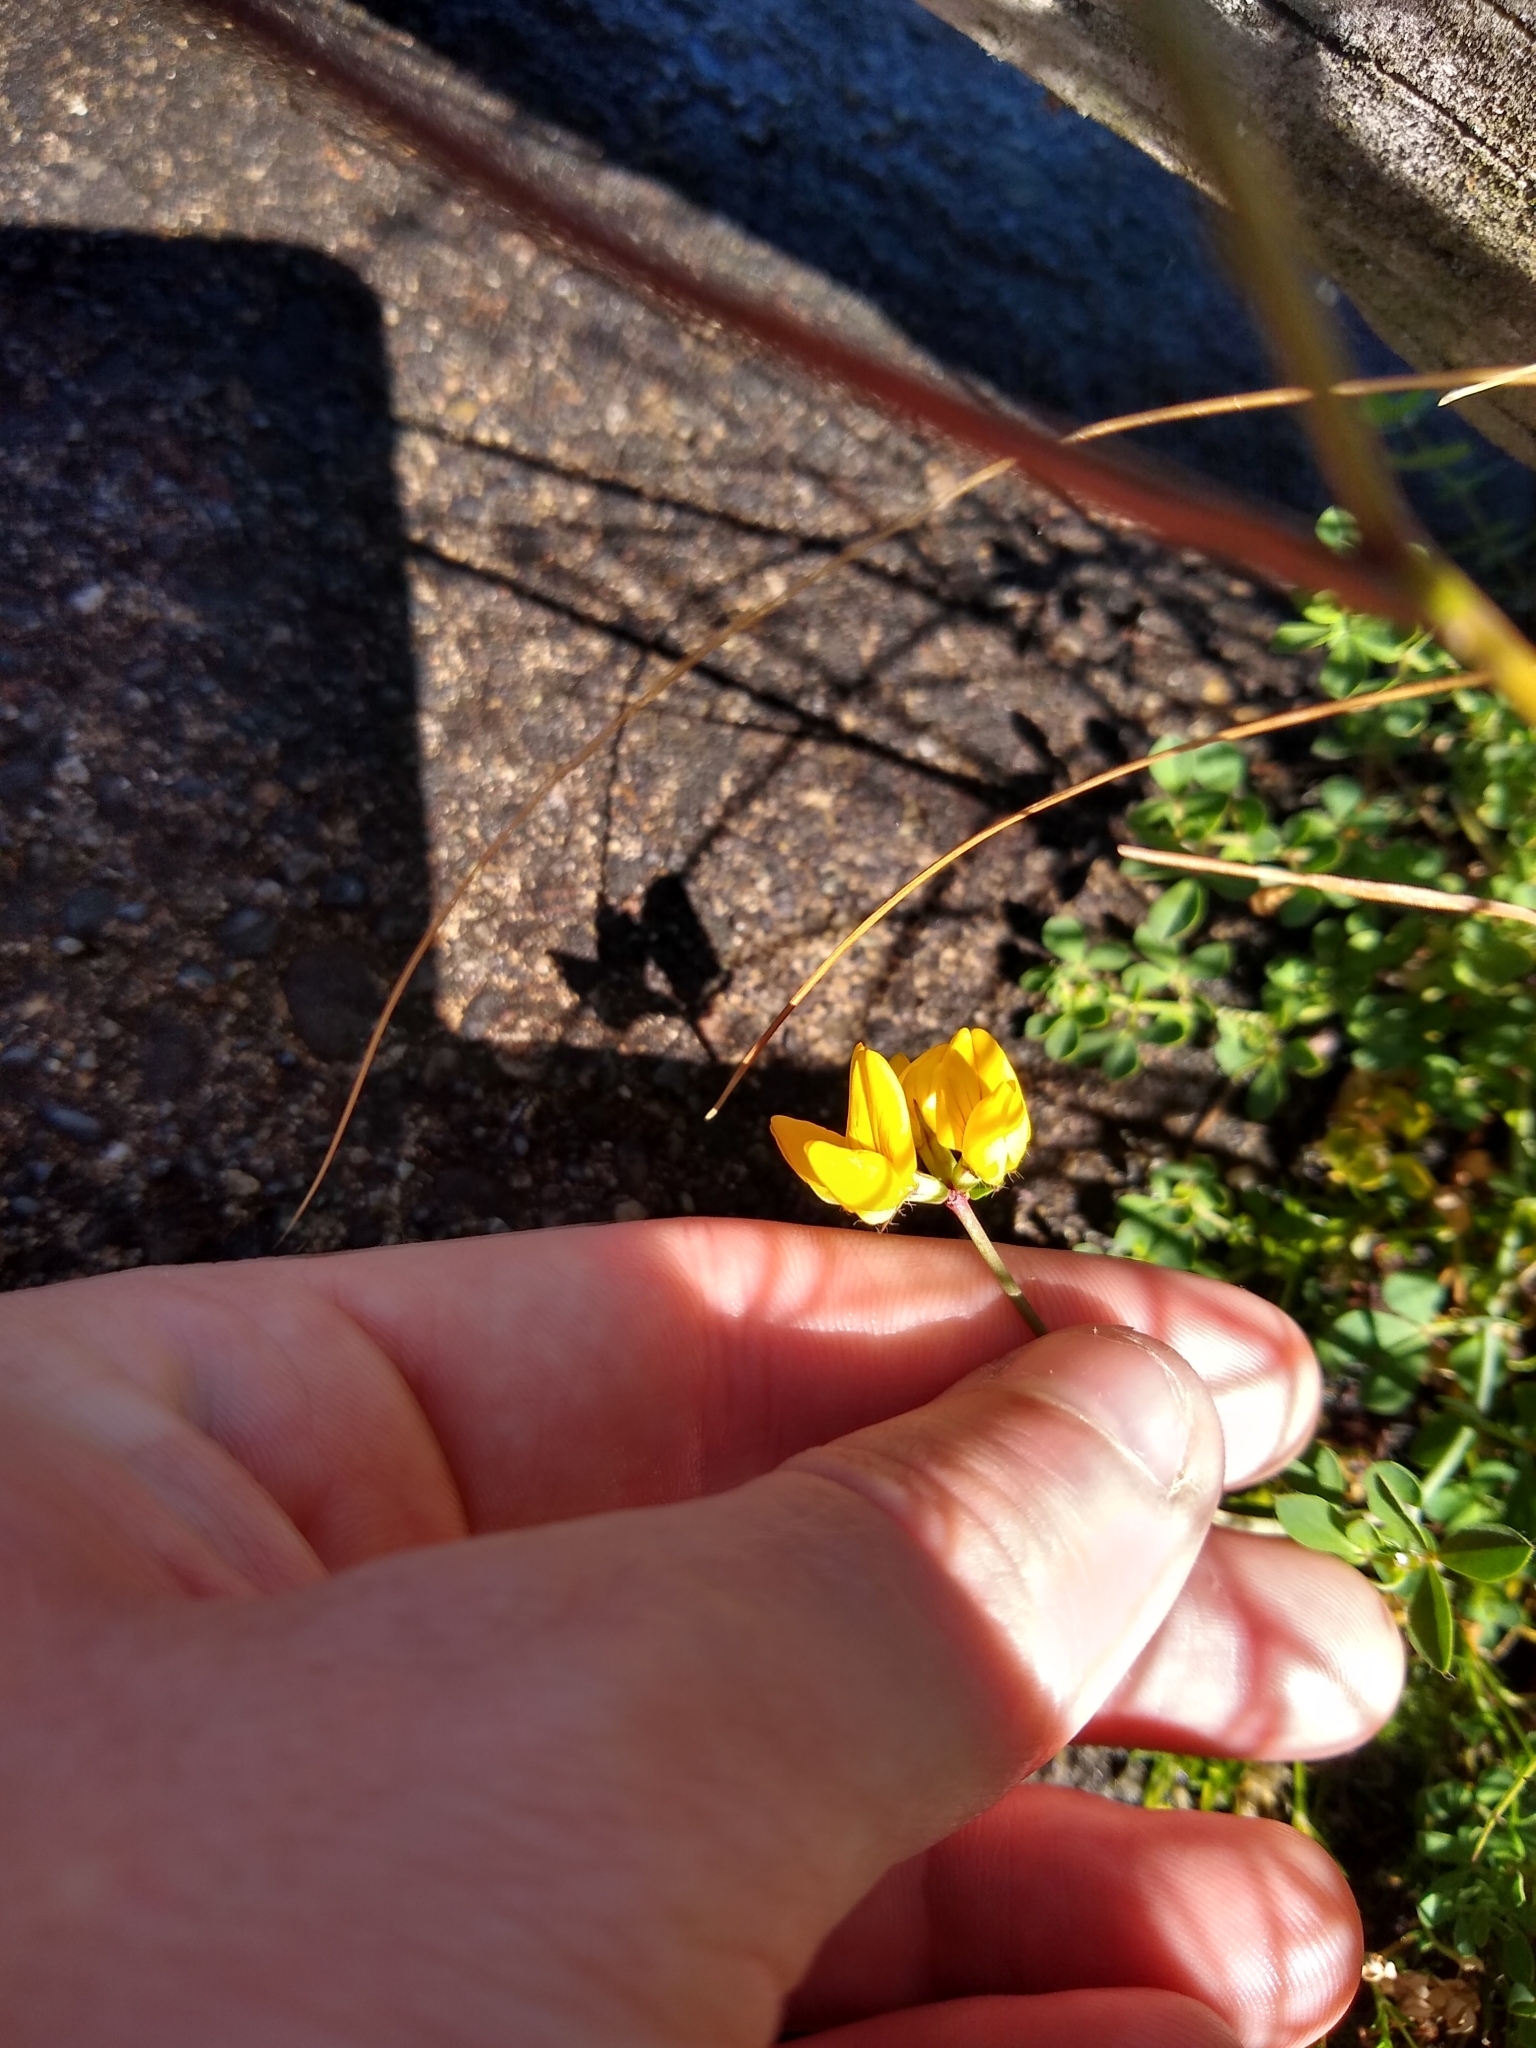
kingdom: Plantae
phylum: Tracheophyta
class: Magnoliopsida
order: Fabales
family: Fabaceae
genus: Lotus
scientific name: Lotus
